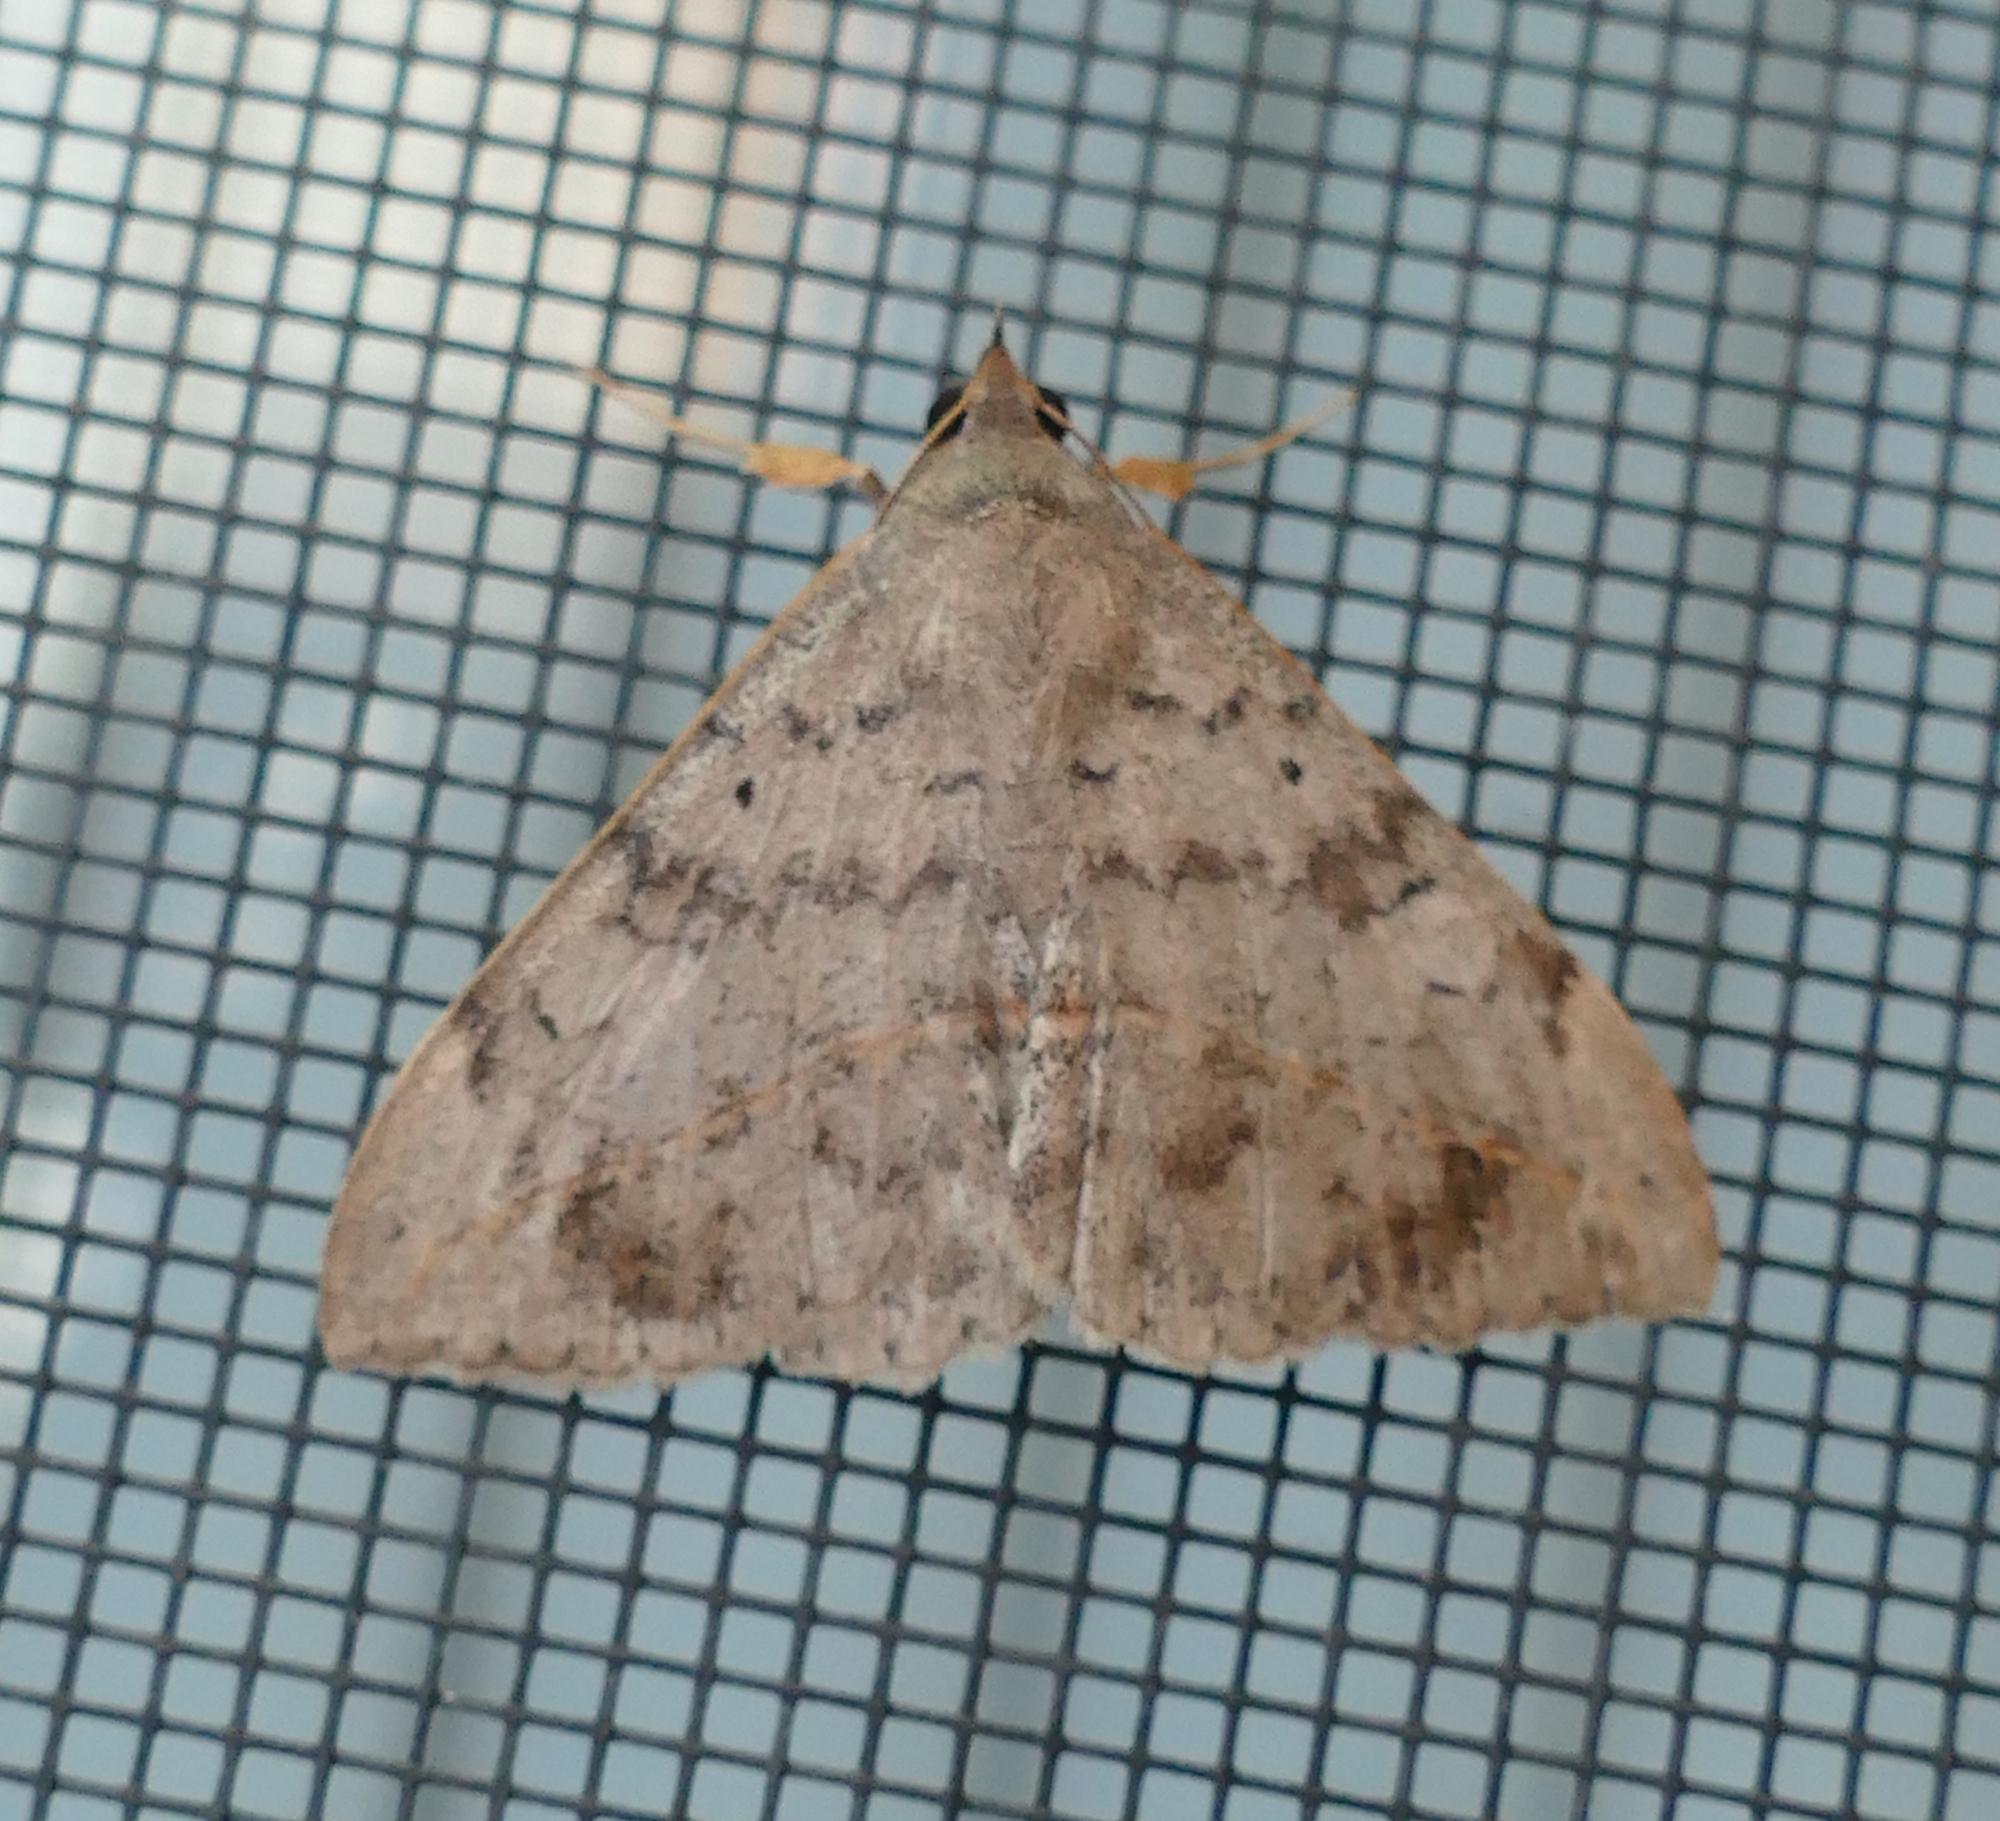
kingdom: Animalia
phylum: Arthropoda
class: Insecta
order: Lepidoptera
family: Erebidae
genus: Anticarsia
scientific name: Anticarsia gemmatalis
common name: Cutworm moth
